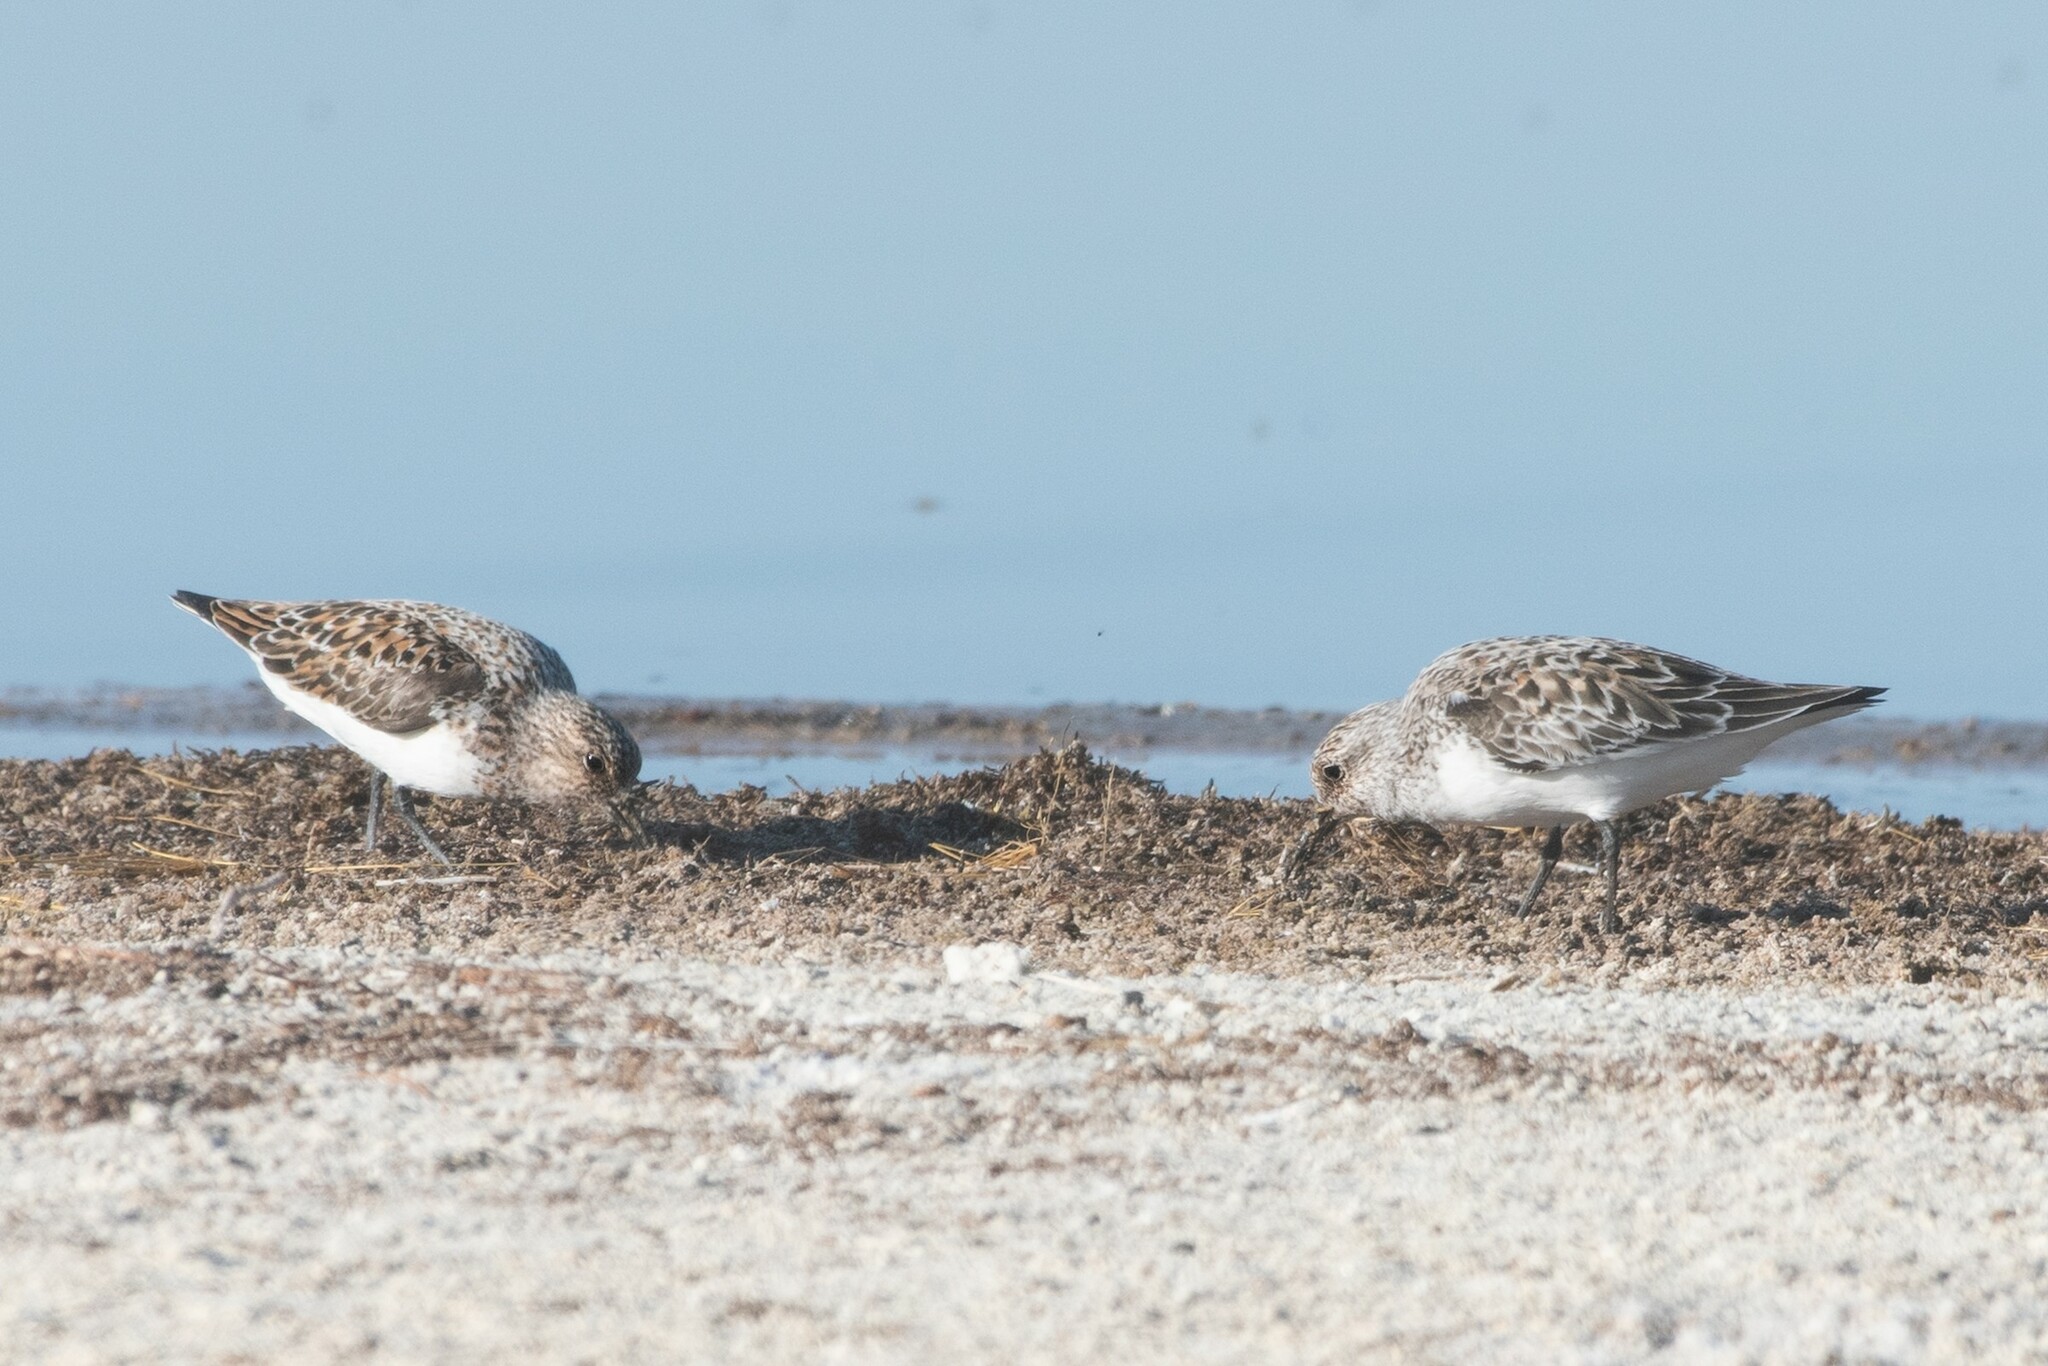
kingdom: Animalia
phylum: Chordata
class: Aves
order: Charadriiformes
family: Scolopacidae
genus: Calidris
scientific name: Calidris alba
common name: Sanderling
